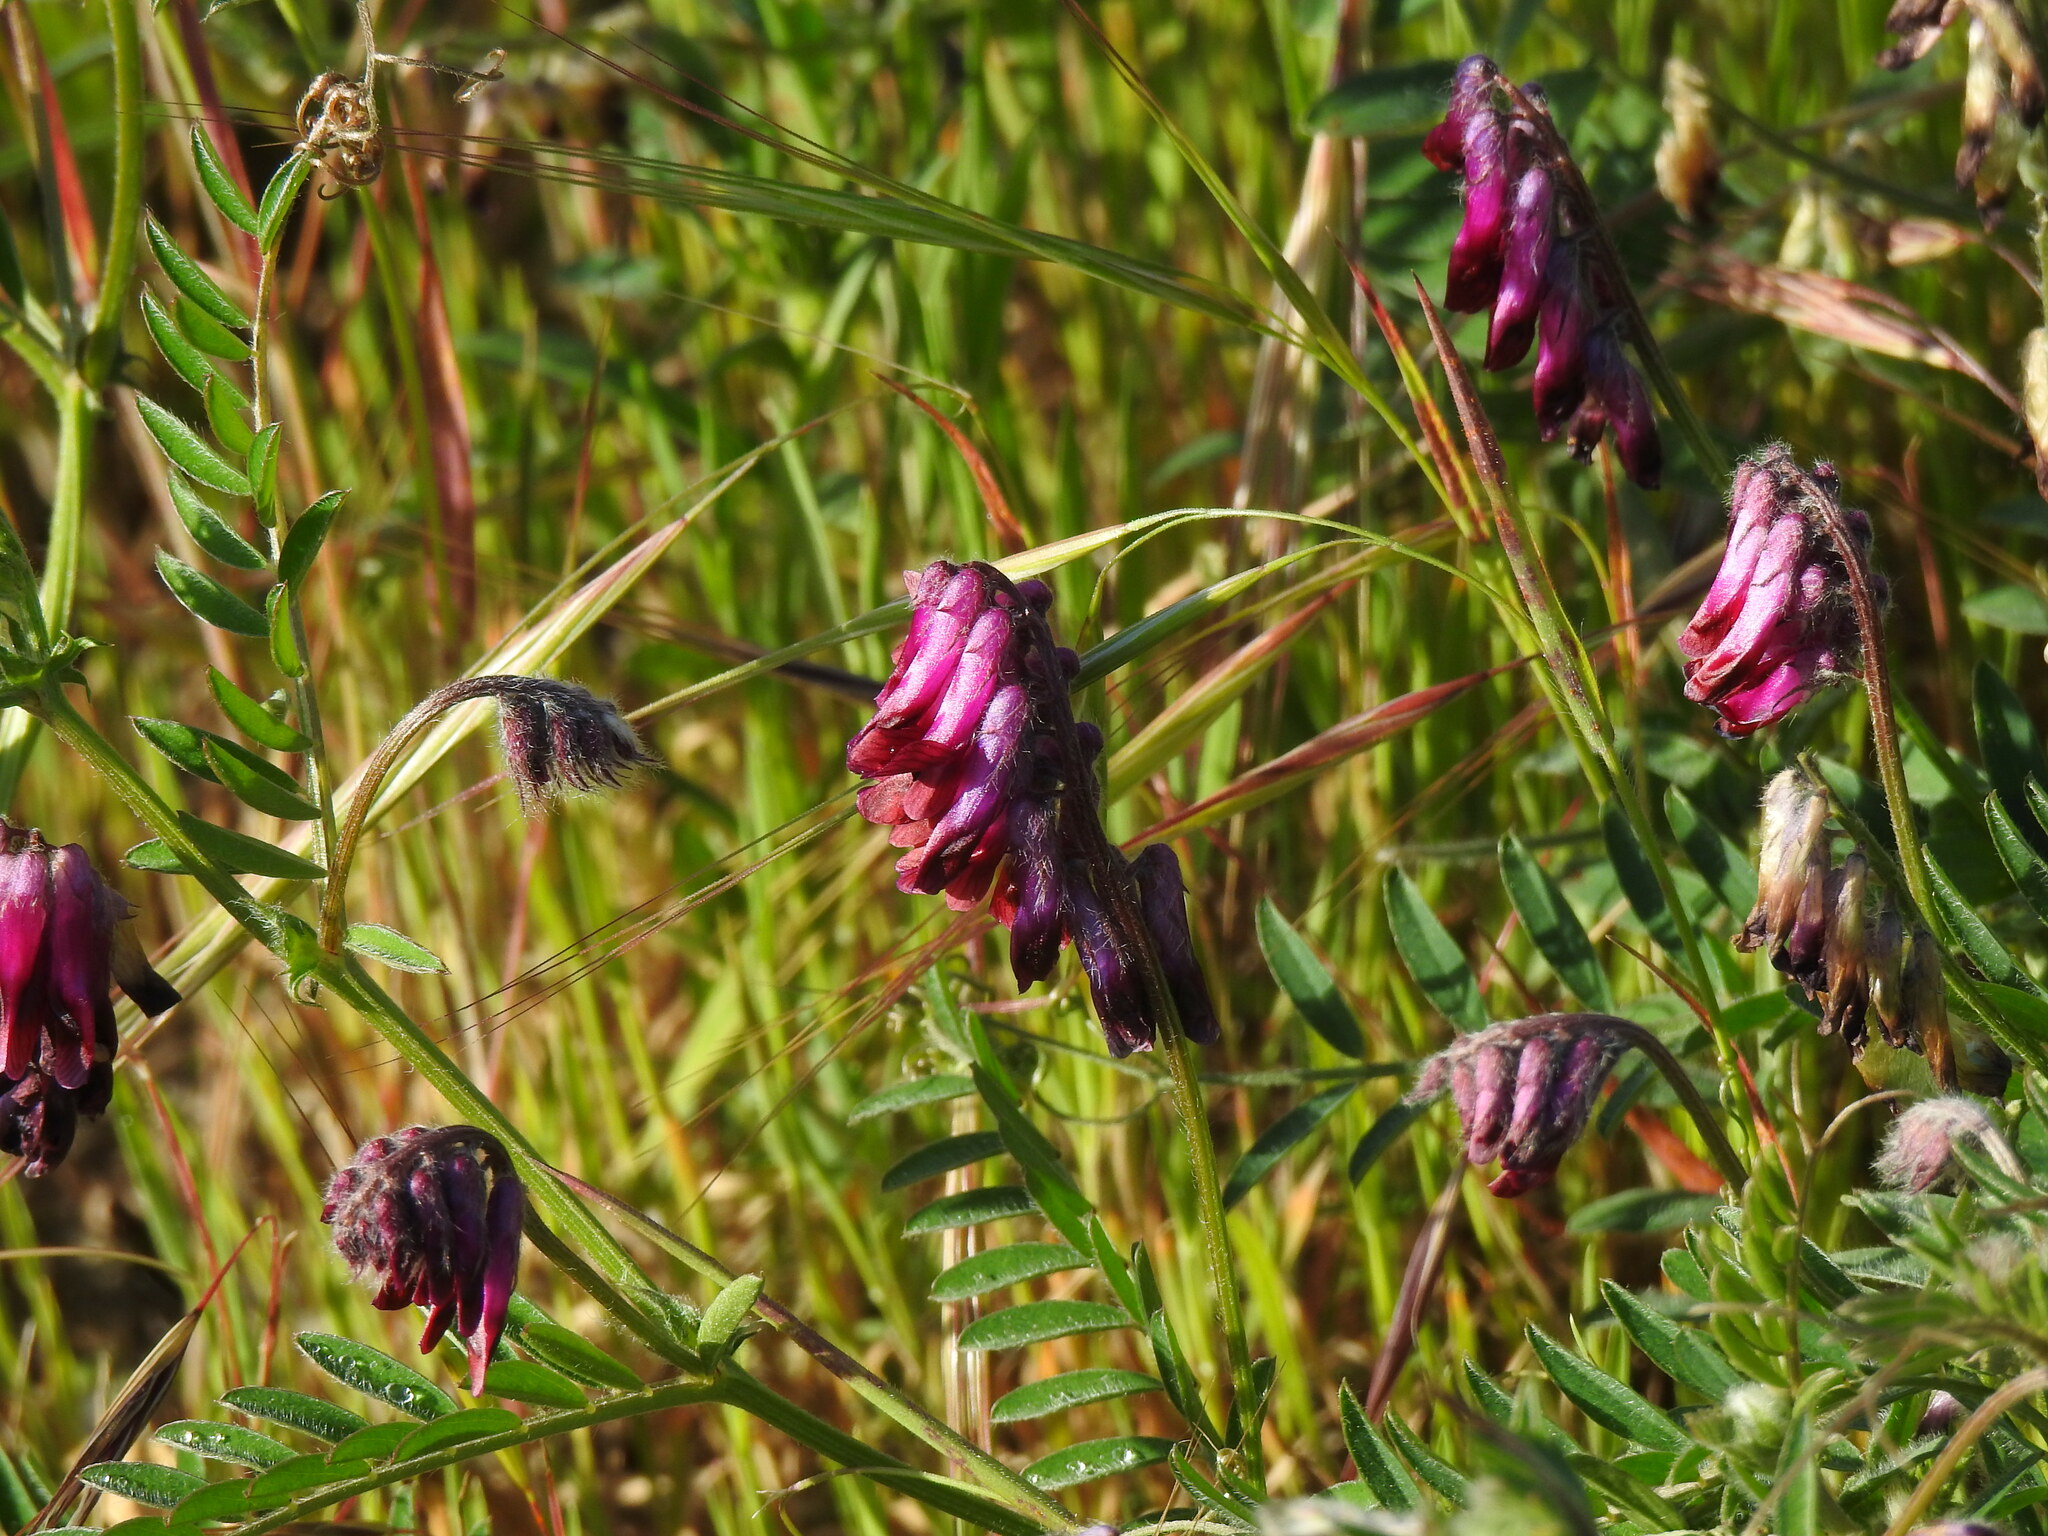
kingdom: Plantae
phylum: Tracheophyta
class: Magnoliopsida
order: Fabales
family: Fabaceae
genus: Vicia
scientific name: Vicia benghalensis
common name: Purple vetch
